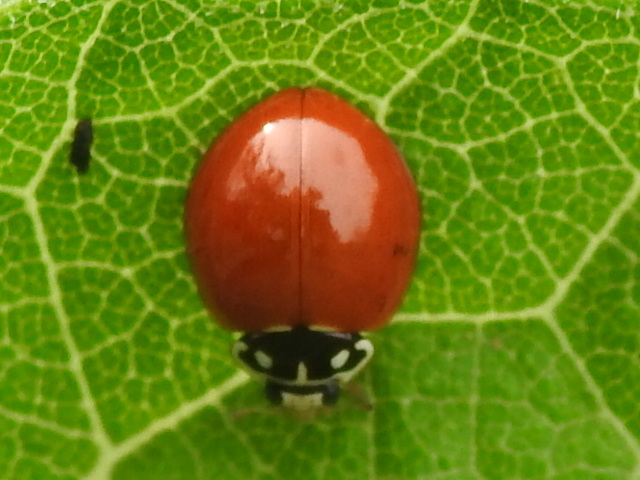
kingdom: Animalia
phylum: Arthropoda
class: Insecta
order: Coleoptera
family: Coccinellidae
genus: Cycloneda
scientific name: Cycloneda sanguinea
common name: Ladybird beetle
